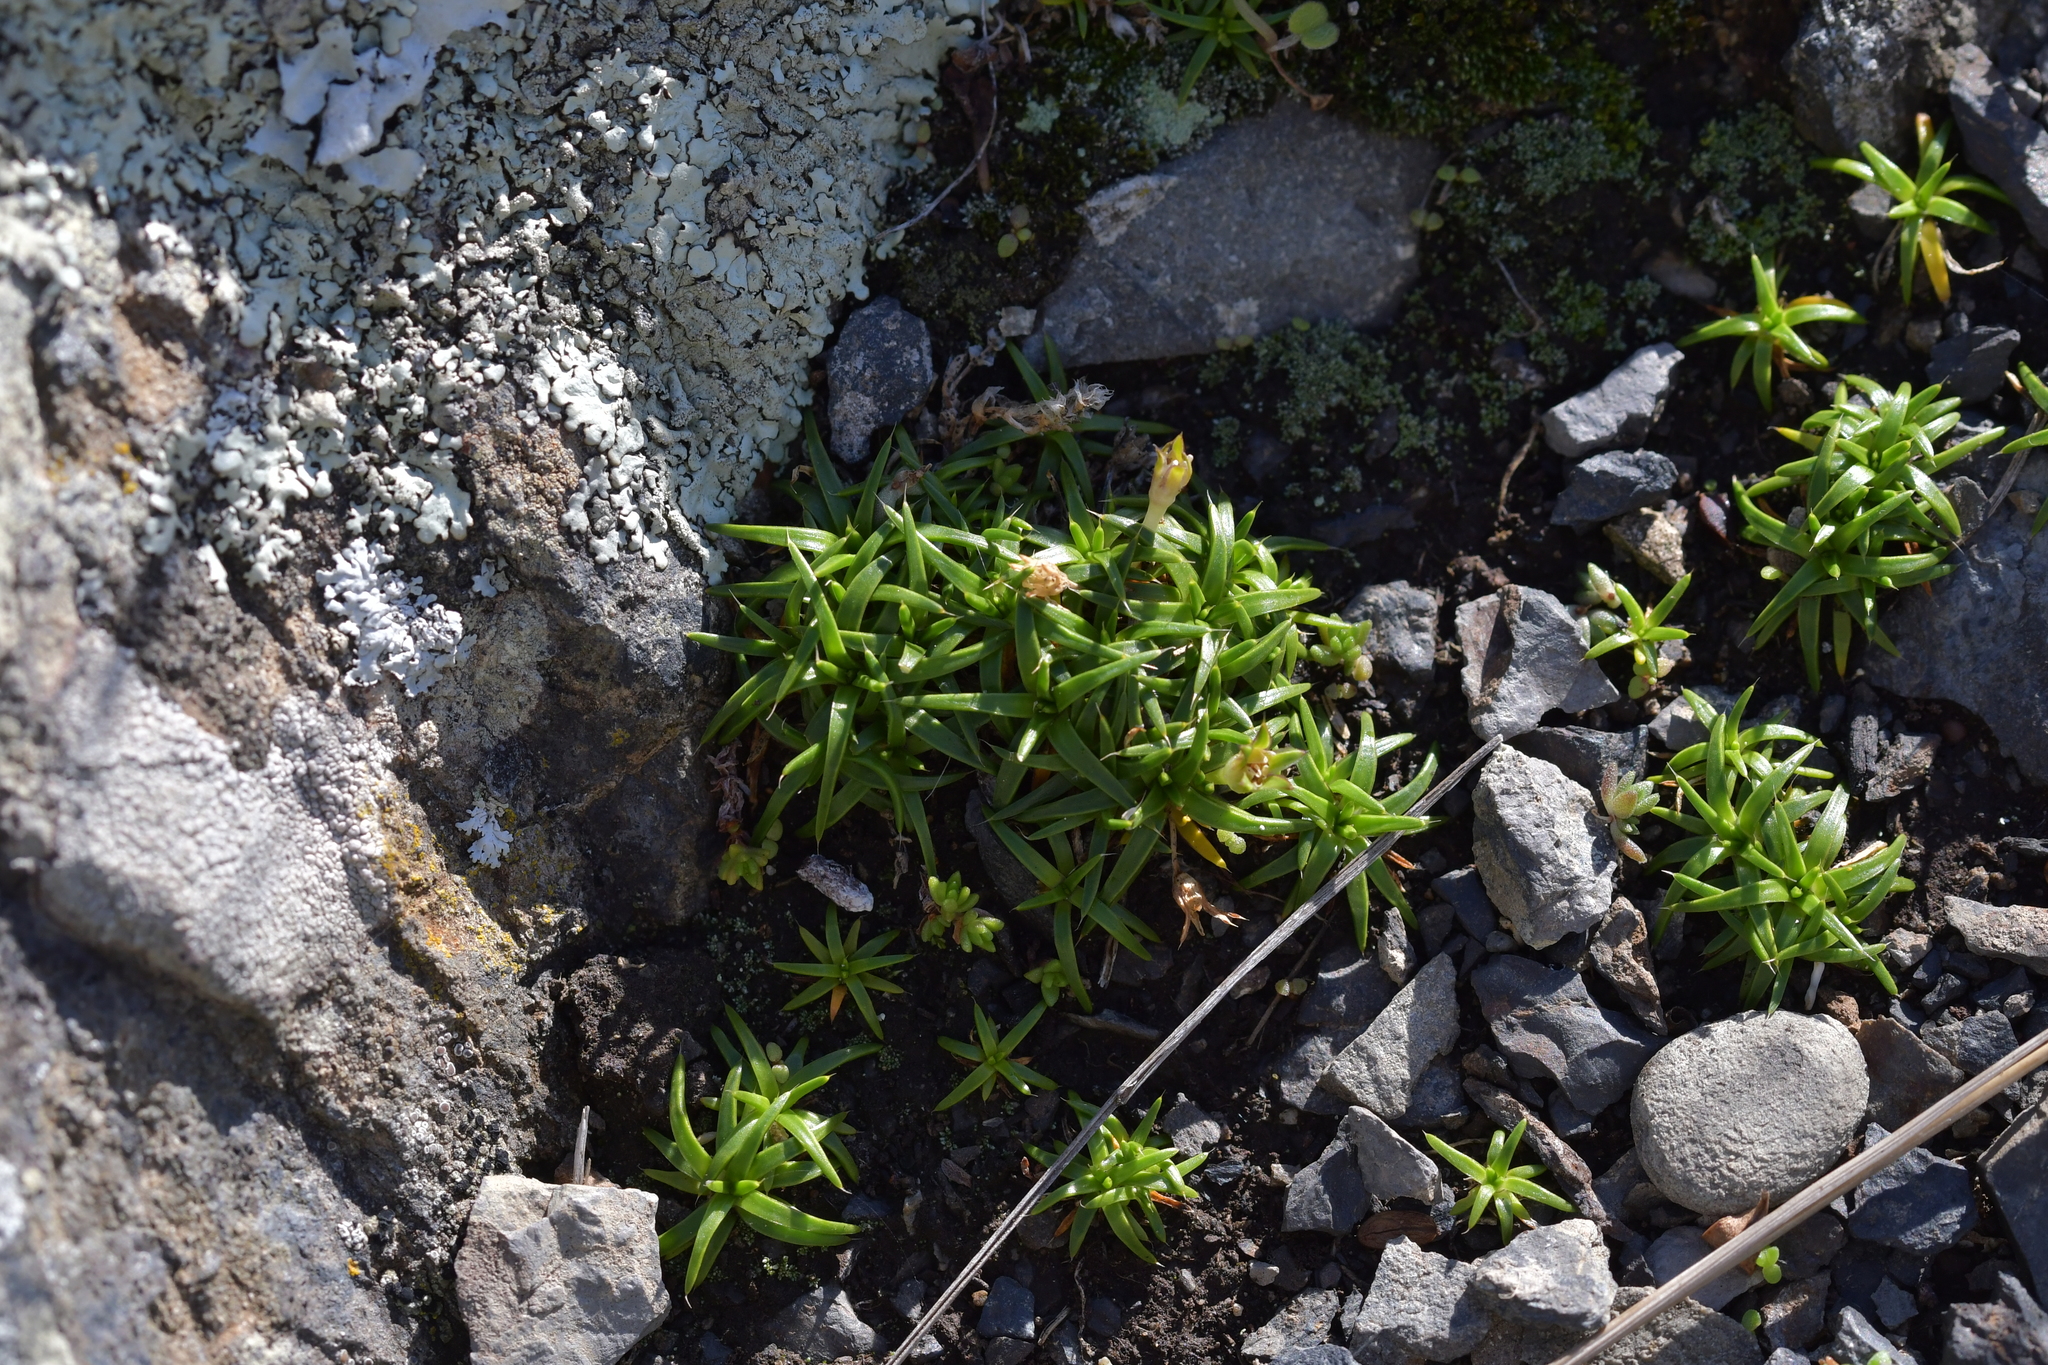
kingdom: Plantae
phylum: Tracheophyta
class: Magnoliopsida
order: Caryophyllales
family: Caryophyllaceae
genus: Colobanthus
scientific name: Colobanthus muelleri
